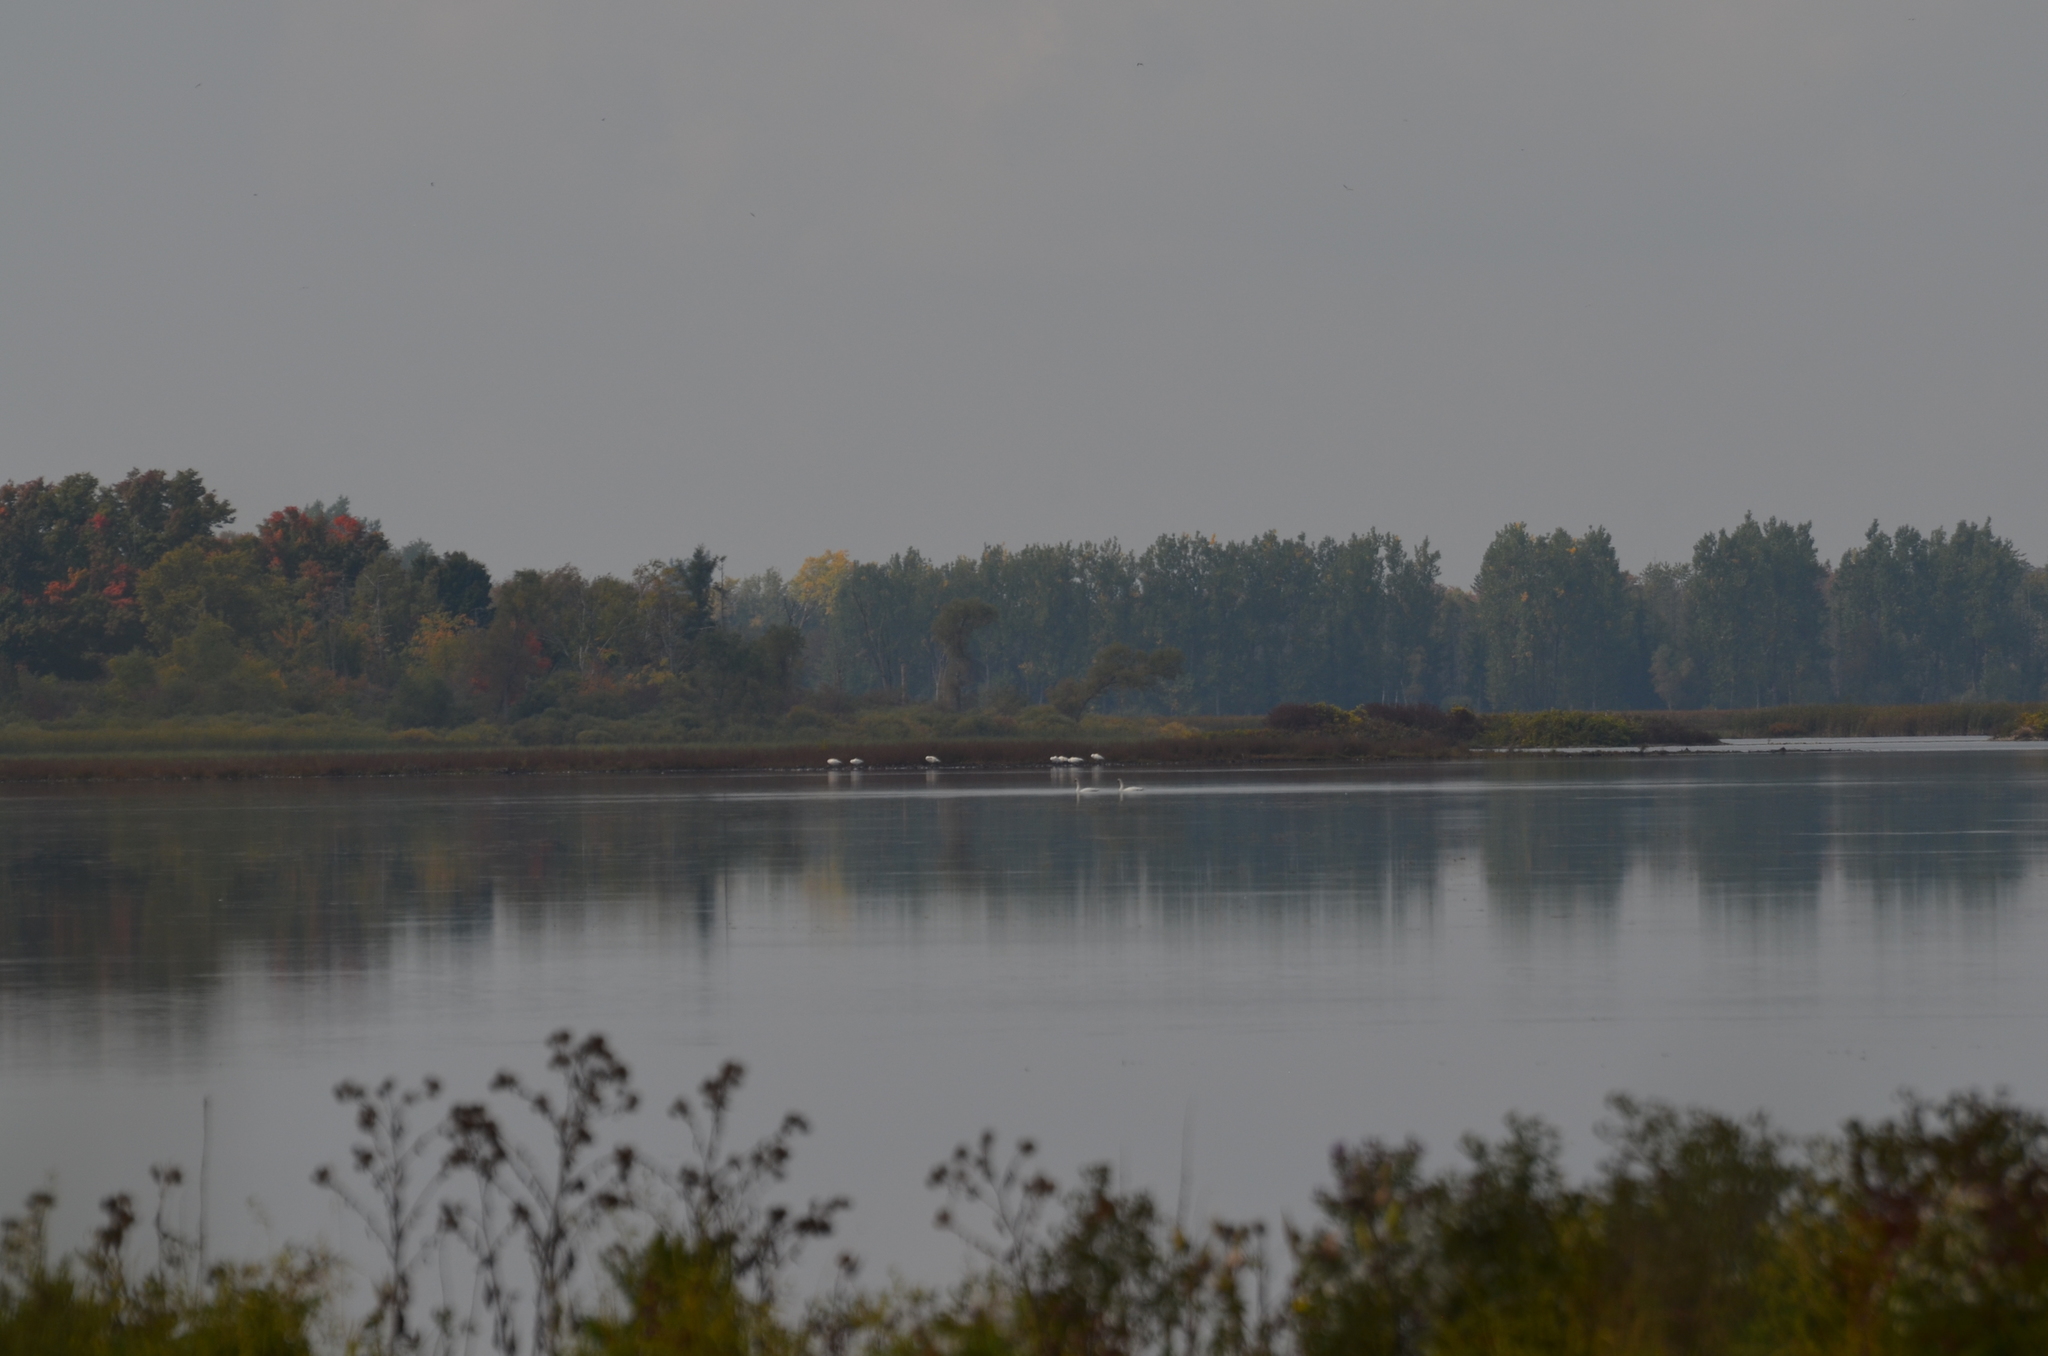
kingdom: Animalia
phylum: Chordata
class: Aves
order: Anseriformes
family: Anatidae
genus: Cygnus
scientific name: Cygnus buccinator
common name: Trumpeter swan
